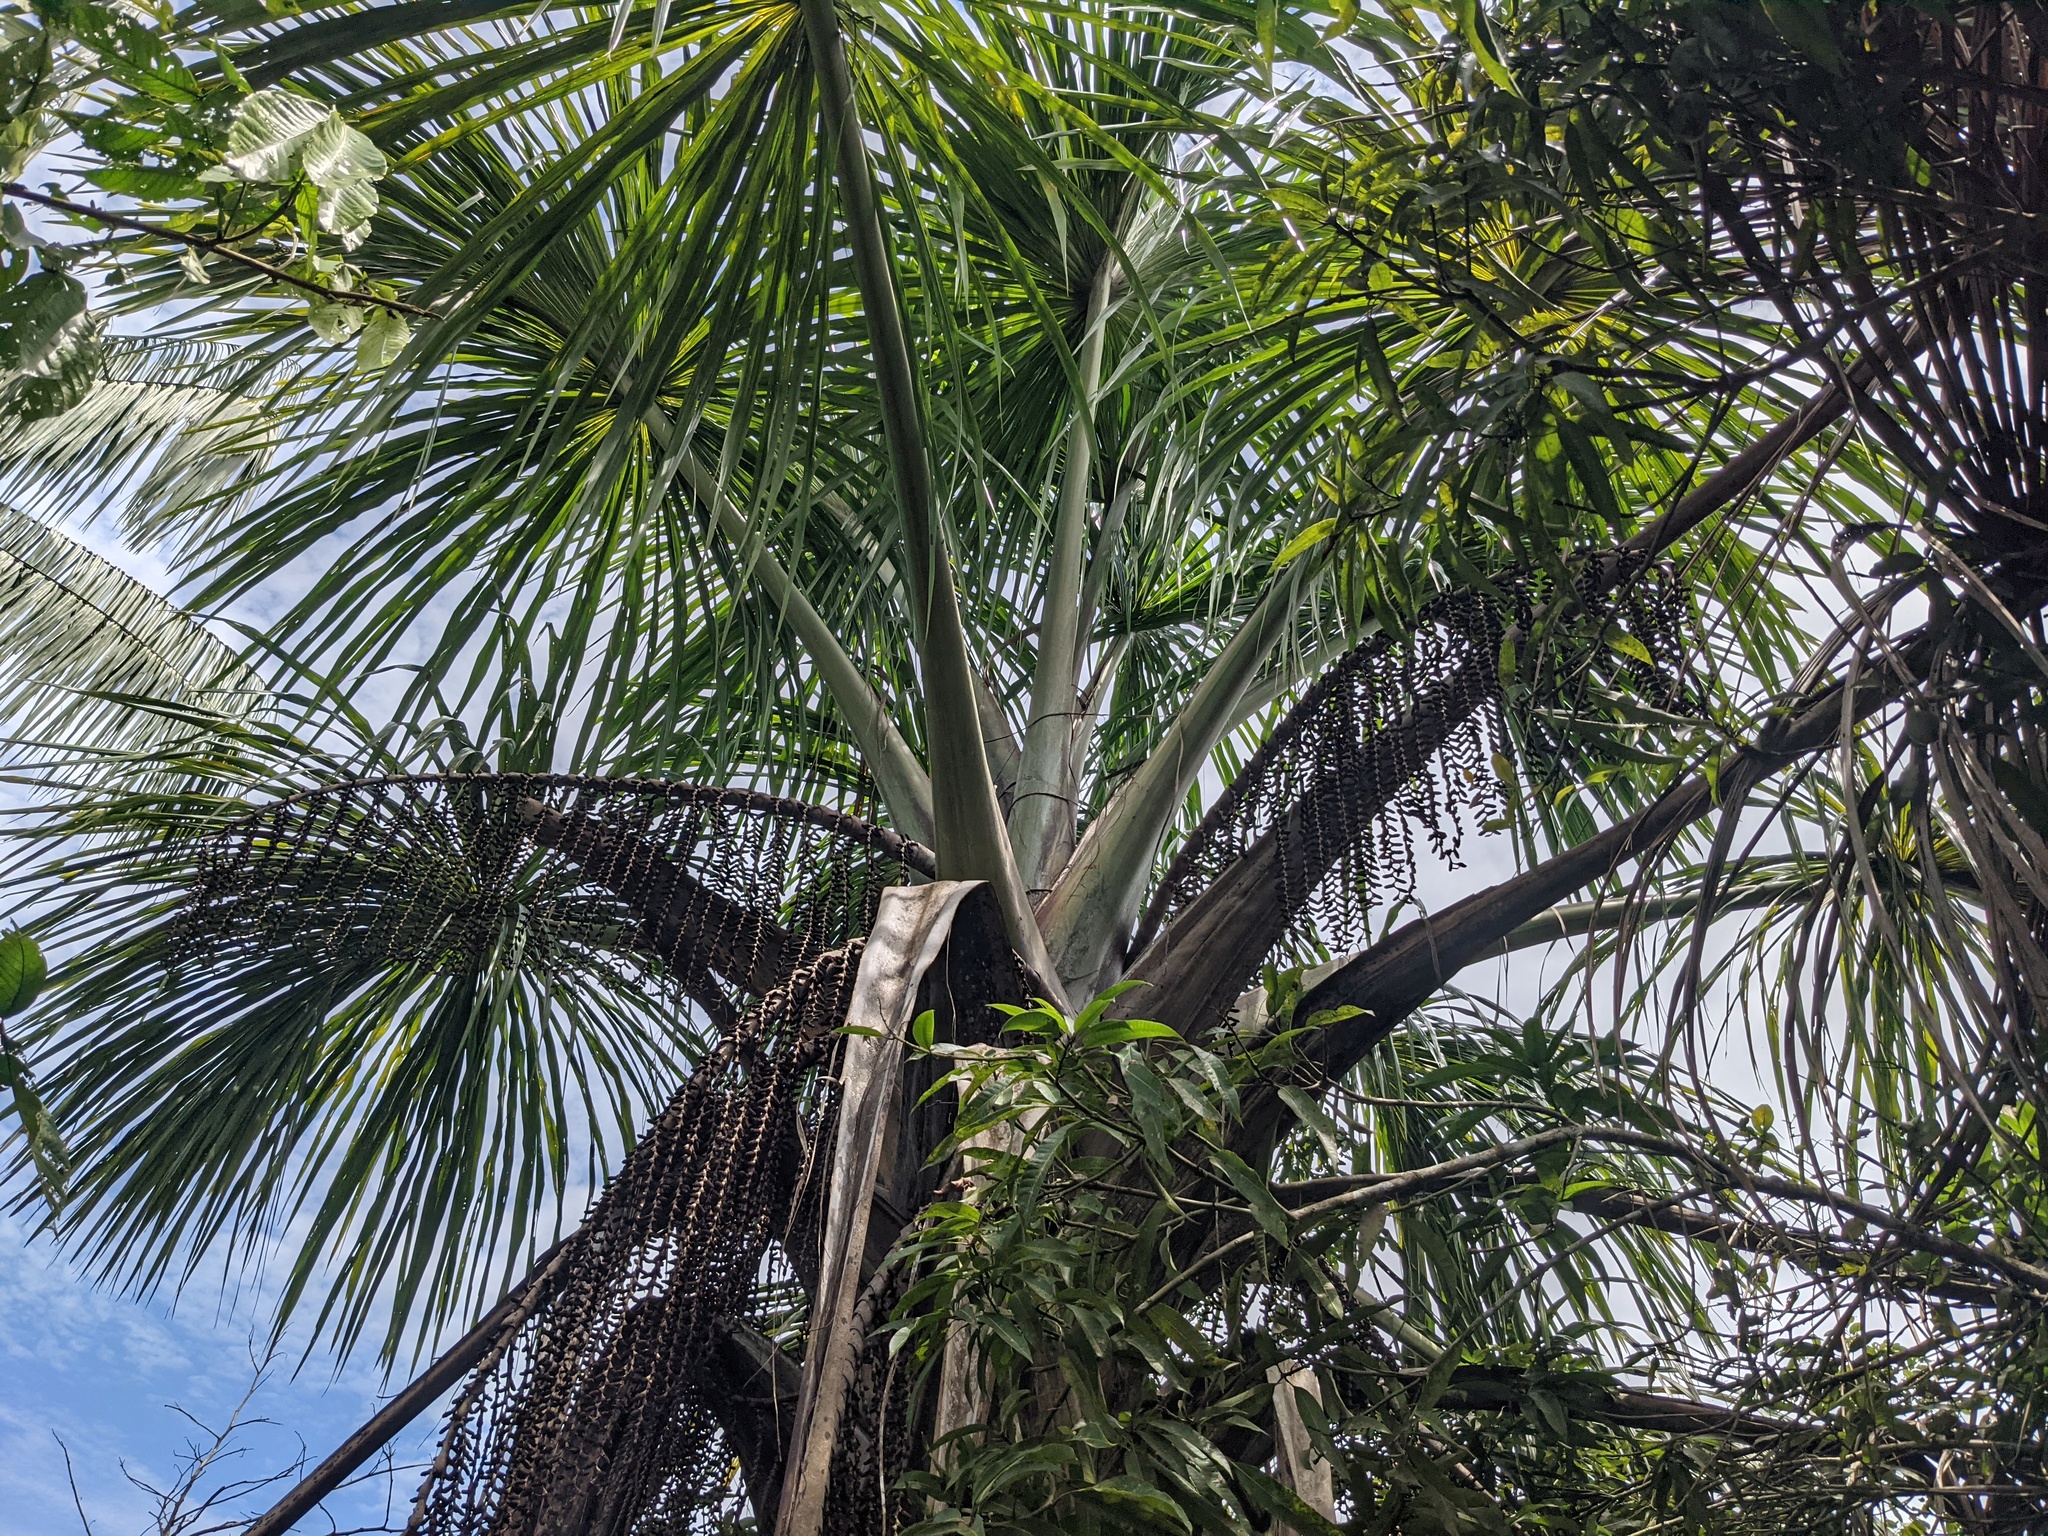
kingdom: Plantae
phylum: Tracheophyta
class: Liliopsida
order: Arecales
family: Arecaceae
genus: Mauritia
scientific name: Mauritia flexuosa
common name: Tree-of-life
